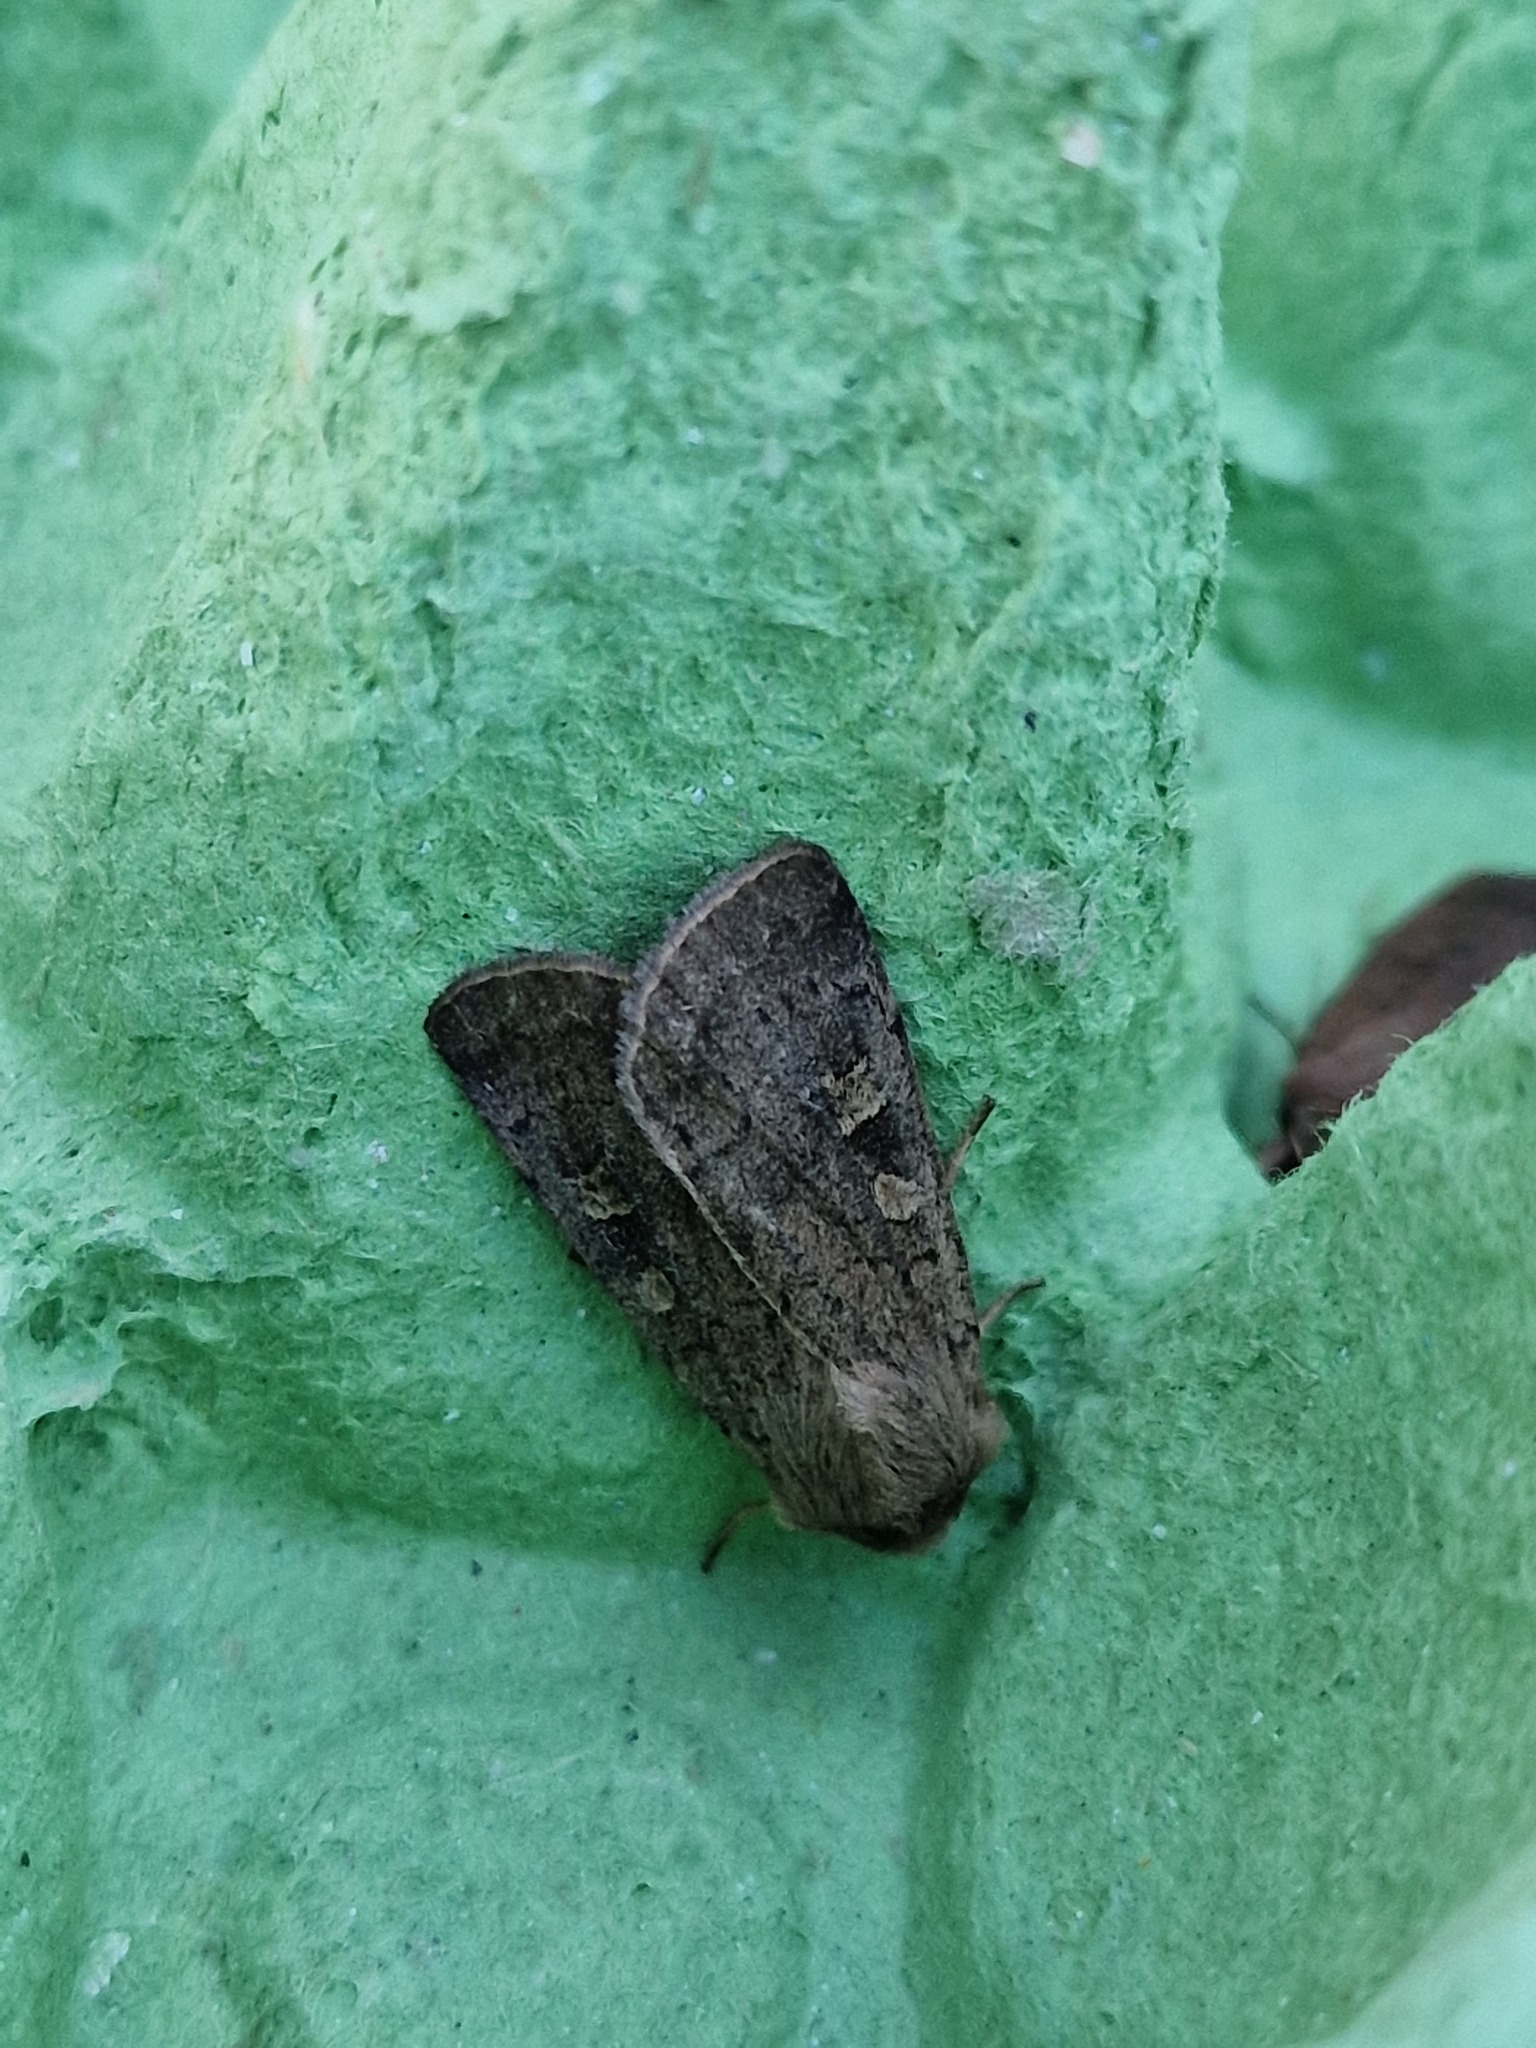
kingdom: Animalia
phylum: Arthropoda
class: Insecta
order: Lepidoptera
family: Noctuidae
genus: Xestia
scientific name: Xestia xanthographa
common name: Square-spot rustic
